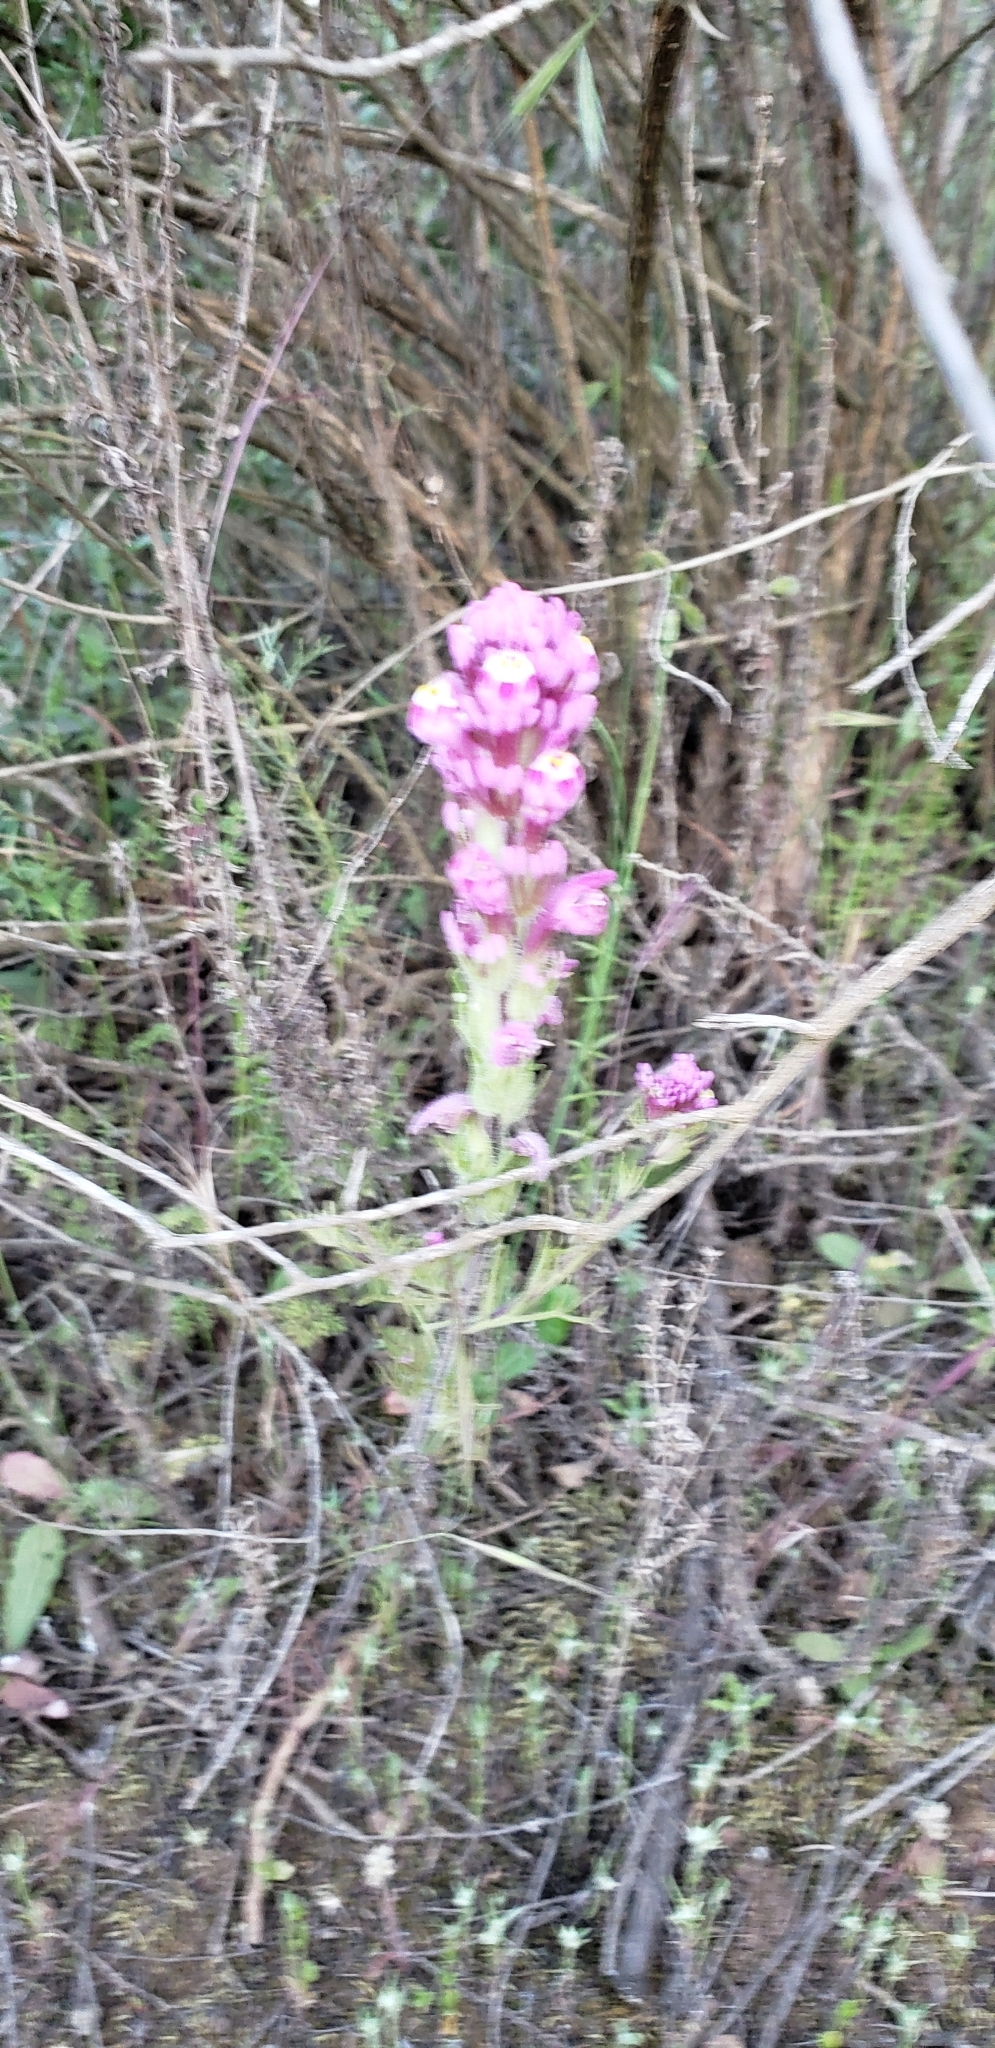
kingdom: Plantae
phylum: Tracheophyta
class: Magnoliopsida
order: Lamiales
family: Orobanchaceae
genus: Castilleja
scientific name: Castilleja exserta
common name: Purple owl-clover
